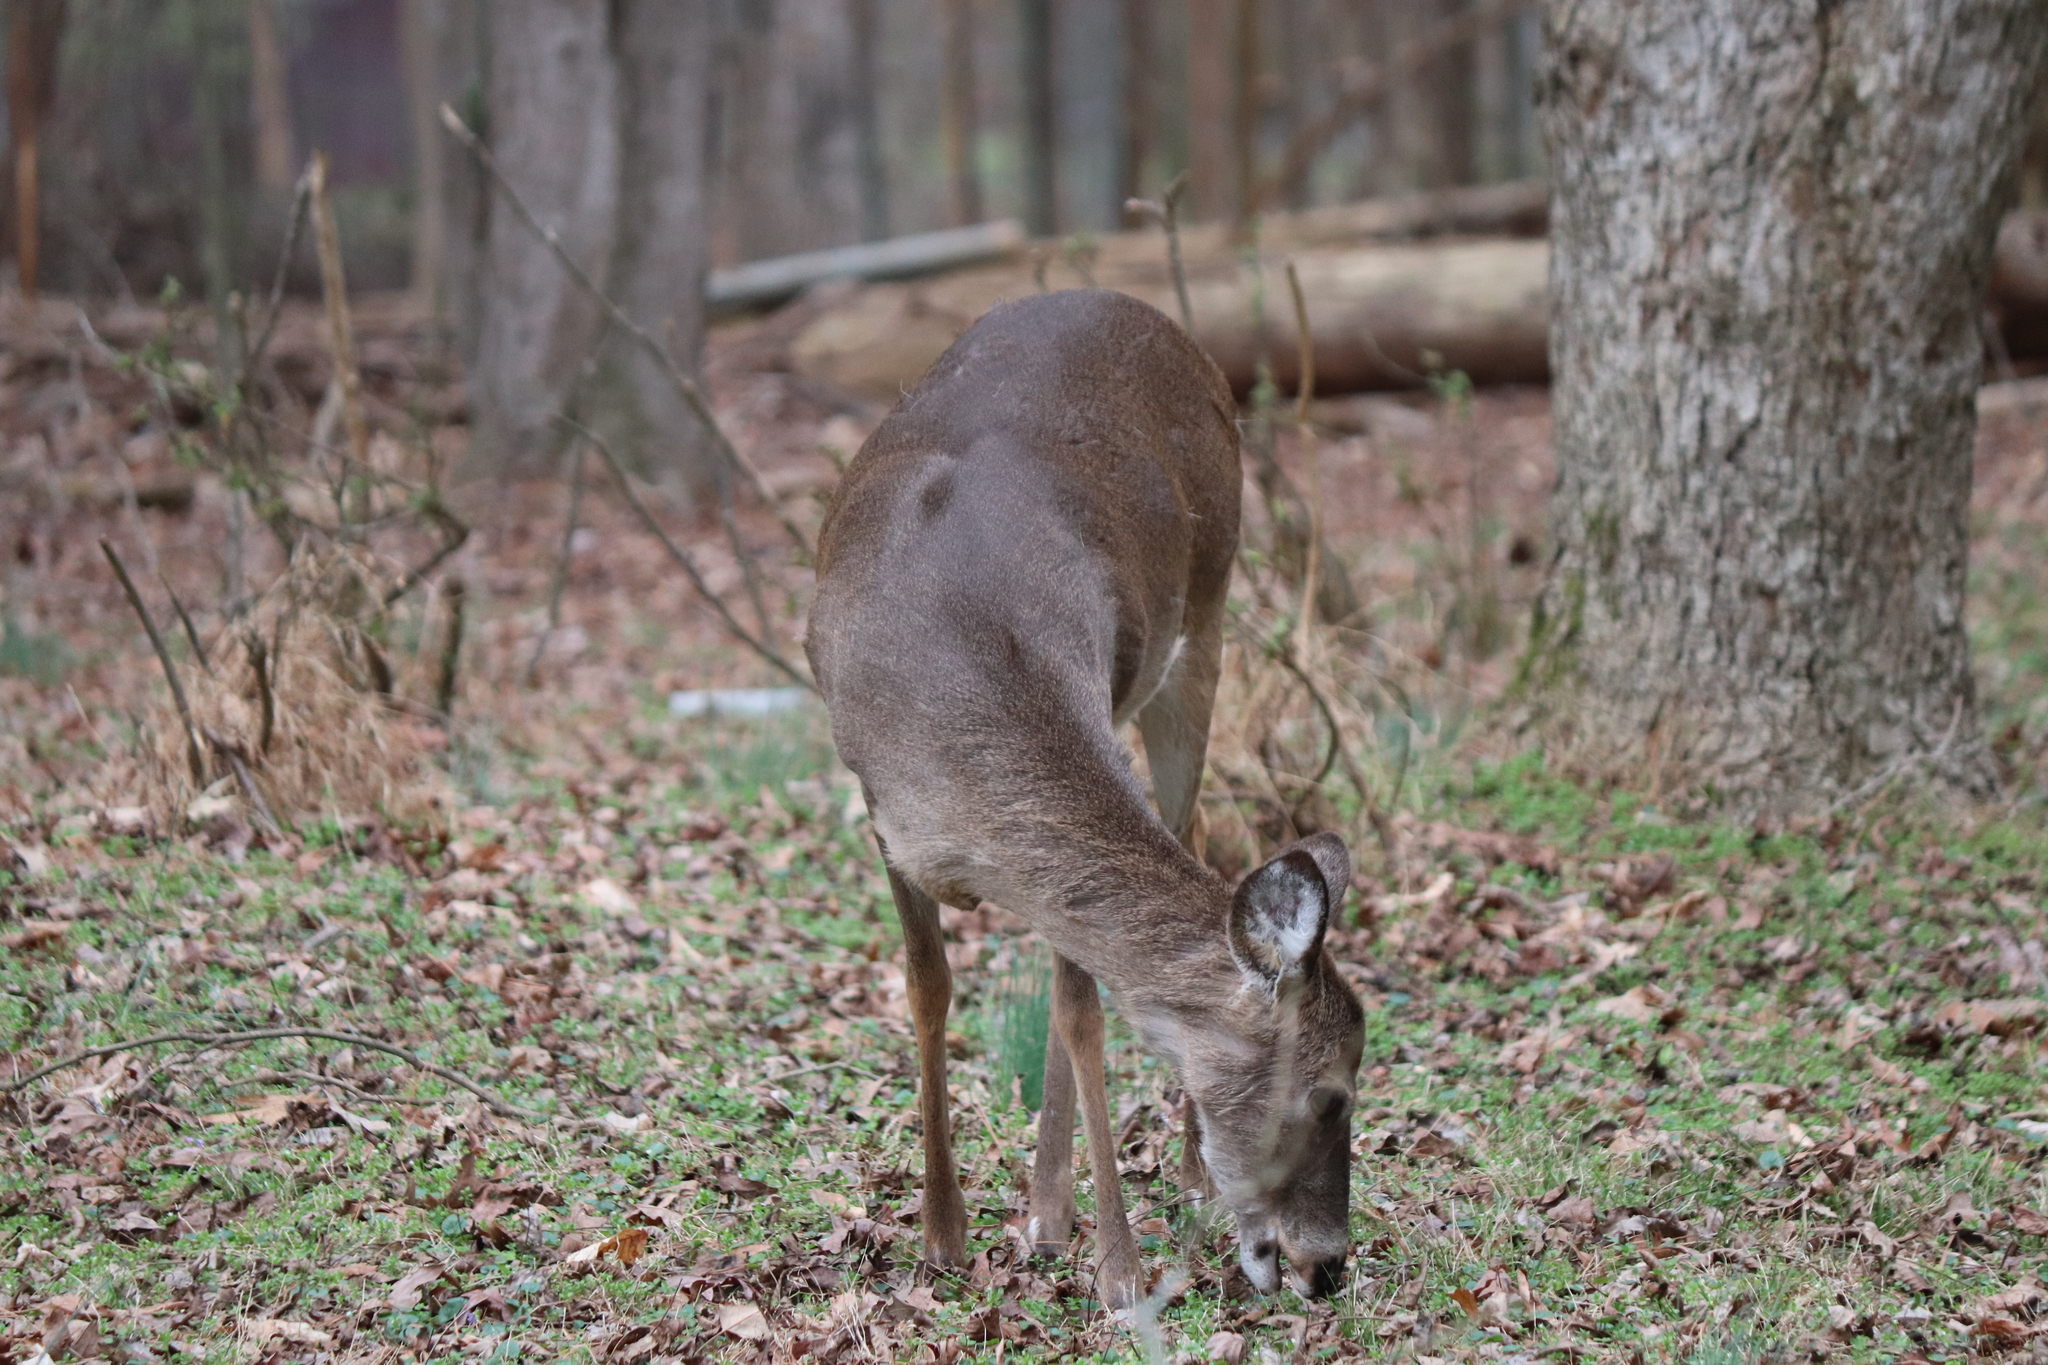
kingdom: Animalia
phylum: Chordata
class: Mammalia
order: Artiodactyla
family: Cervidae
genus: Odocoileus
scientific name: Odocoileus virginianus
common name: White-tailed deer
